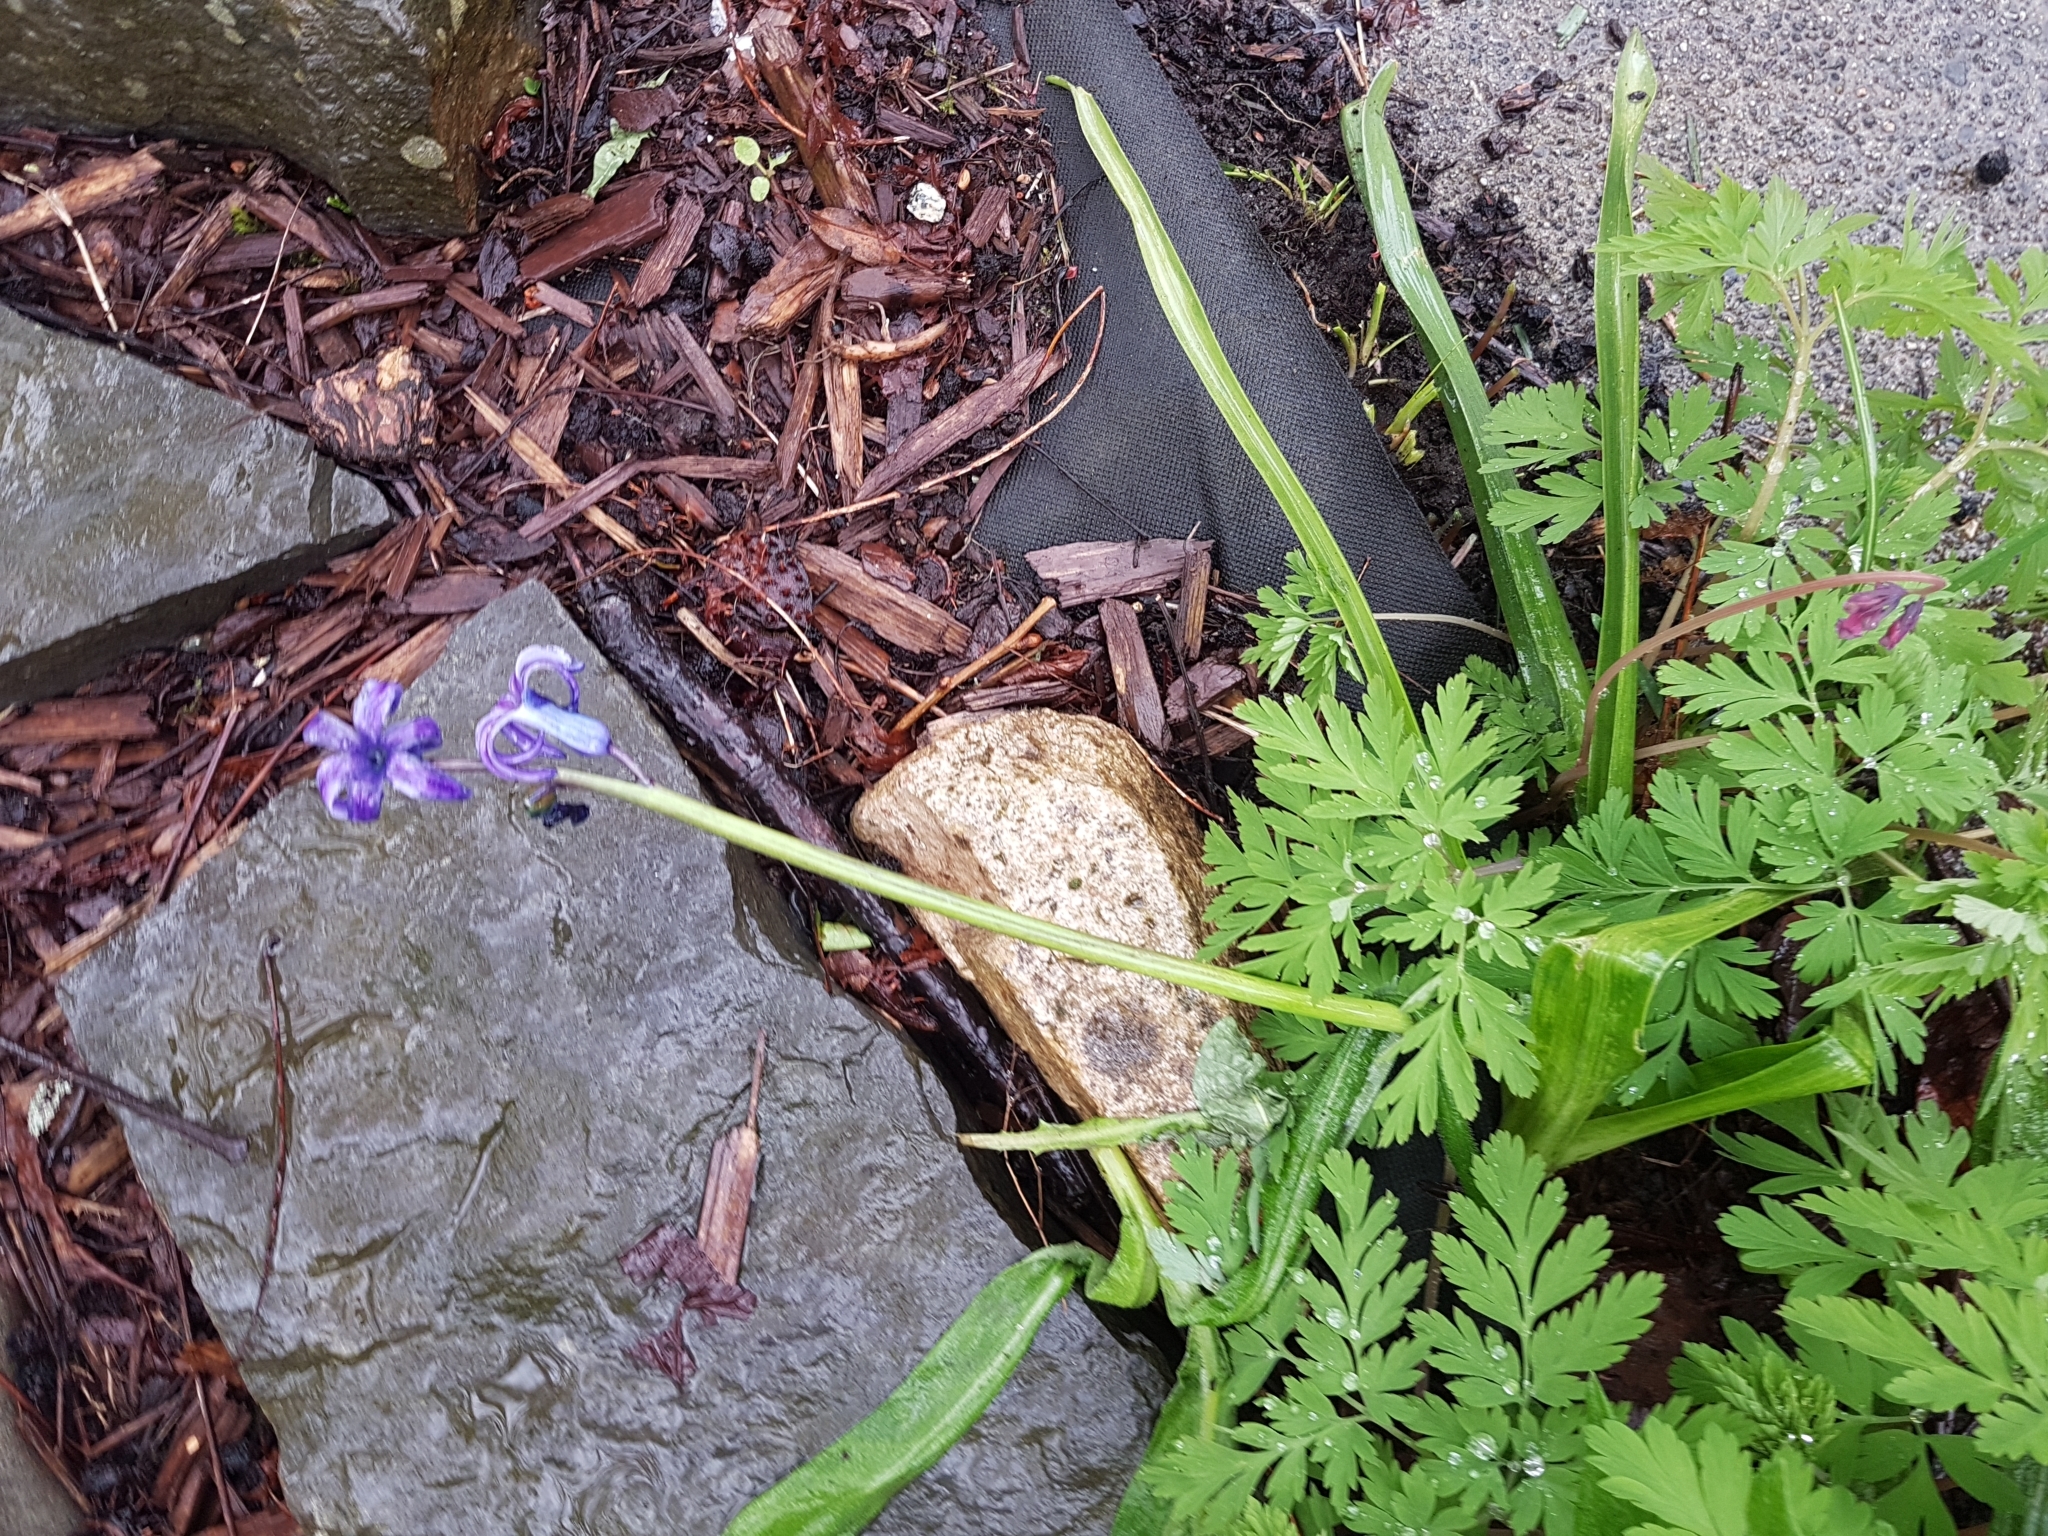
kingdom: Plantae
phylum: Tracheophyta
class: Liliopsida
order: Asparagales
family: Asparagaceae
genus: Hyacinthus
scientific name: Hyacinthus orientalis
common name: Hyacinth
